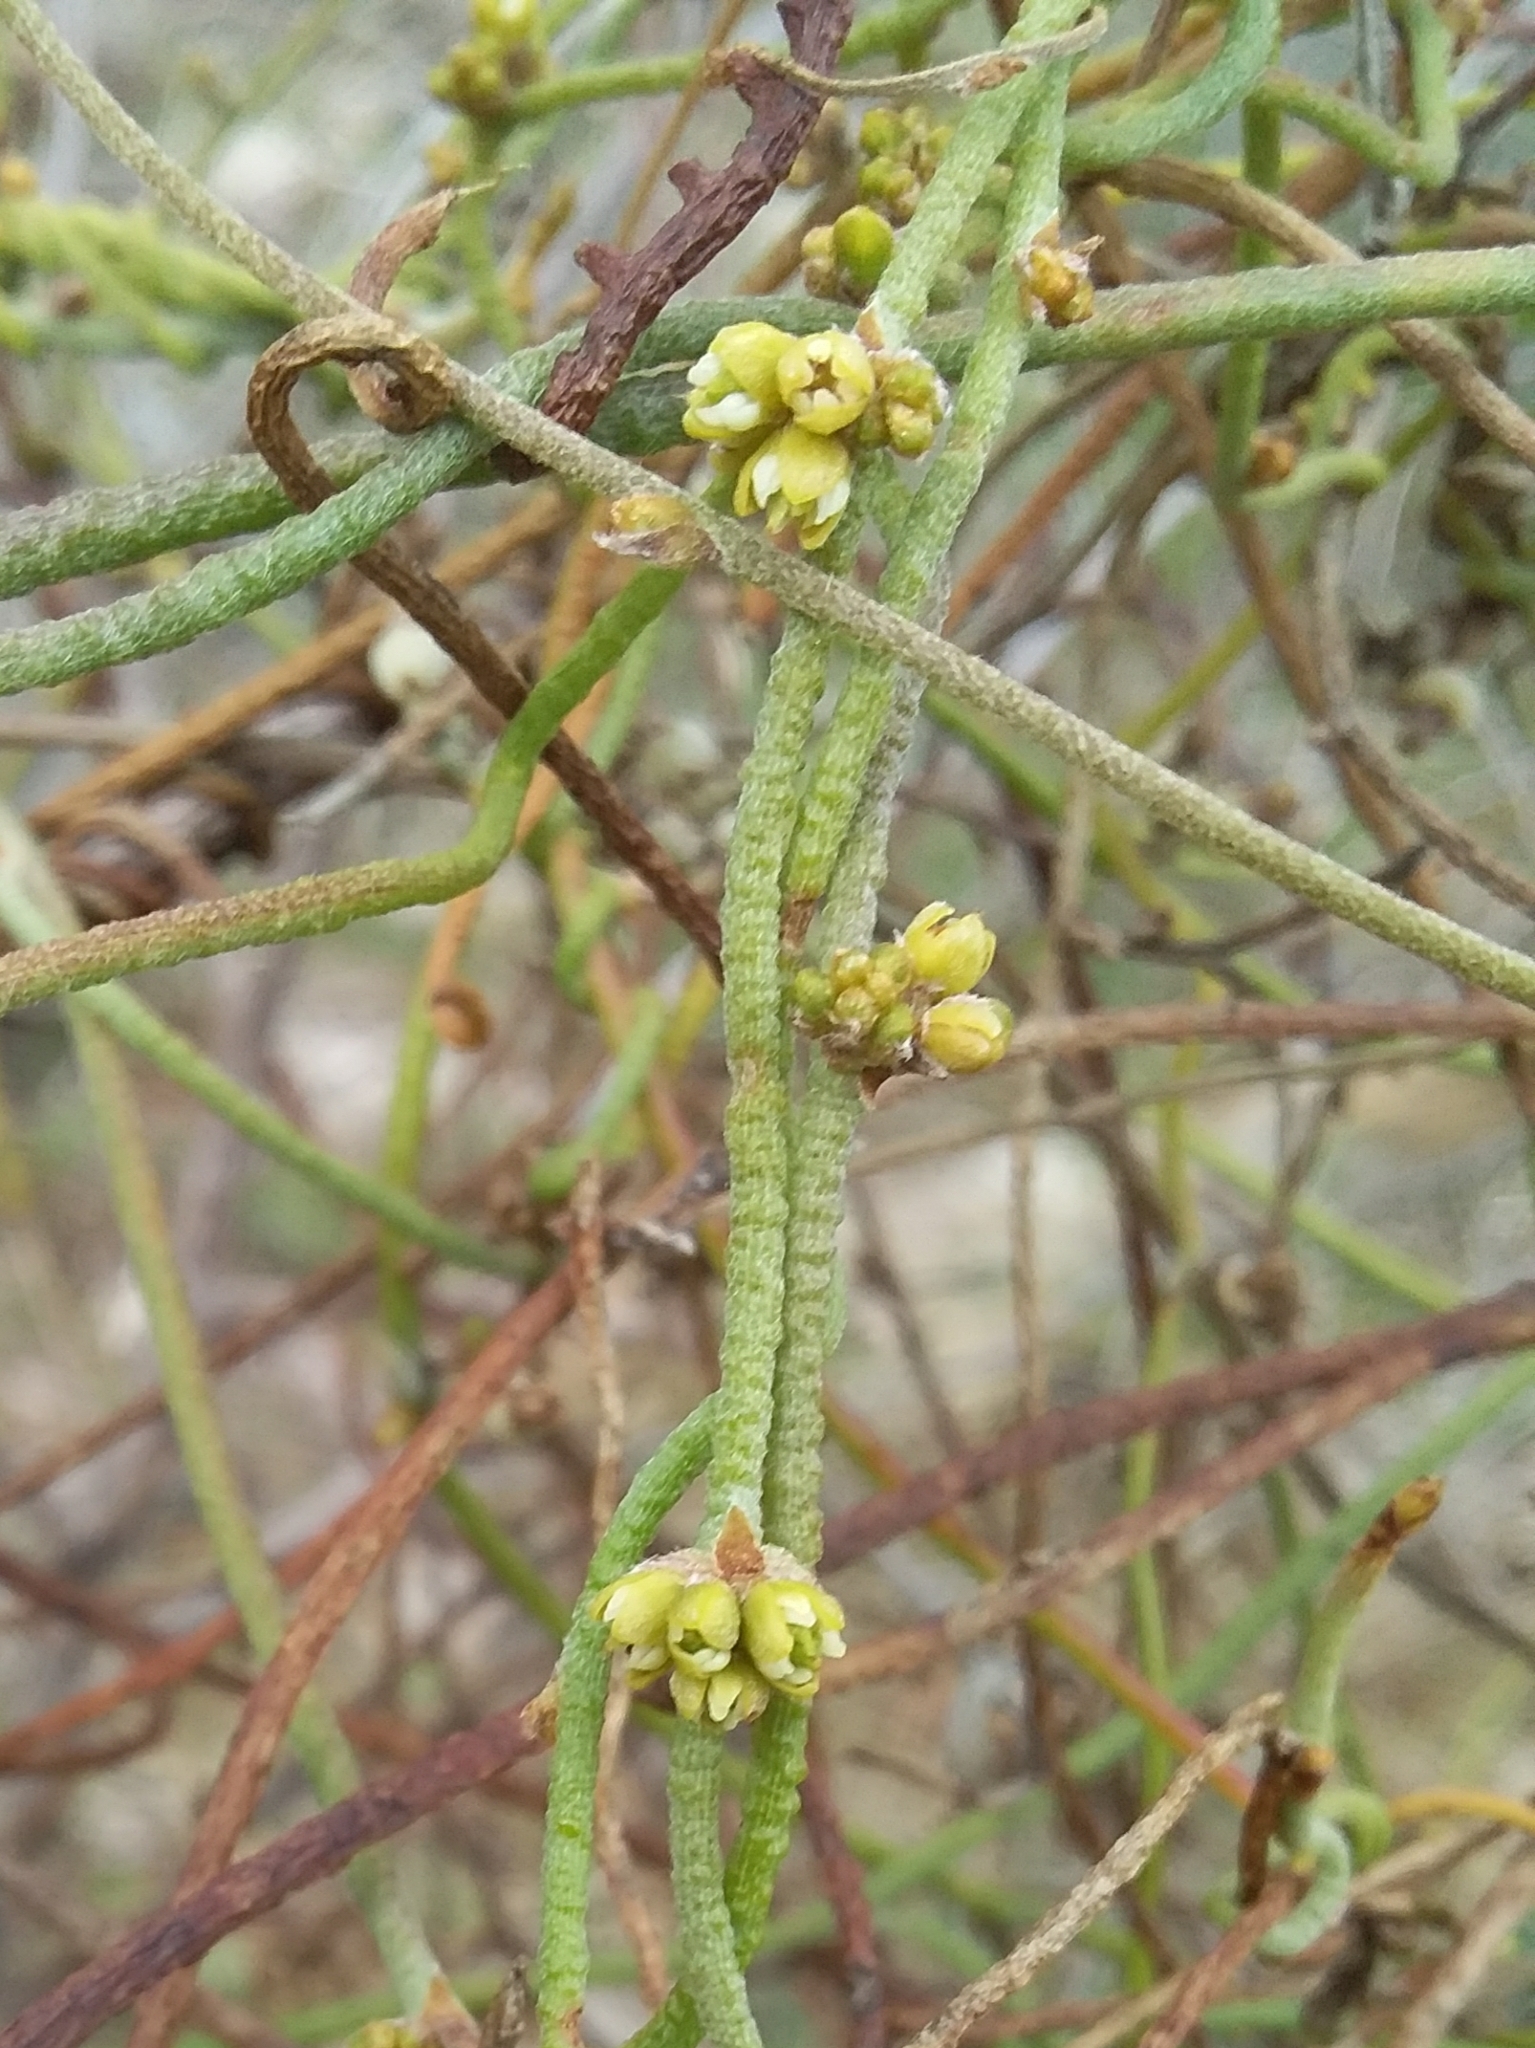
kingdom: Plantae
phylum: Tracheophyta
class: Magnoliopsida
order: Laurales
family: Lauraceae
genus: Cassytha
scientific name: Cassytha pubescens
